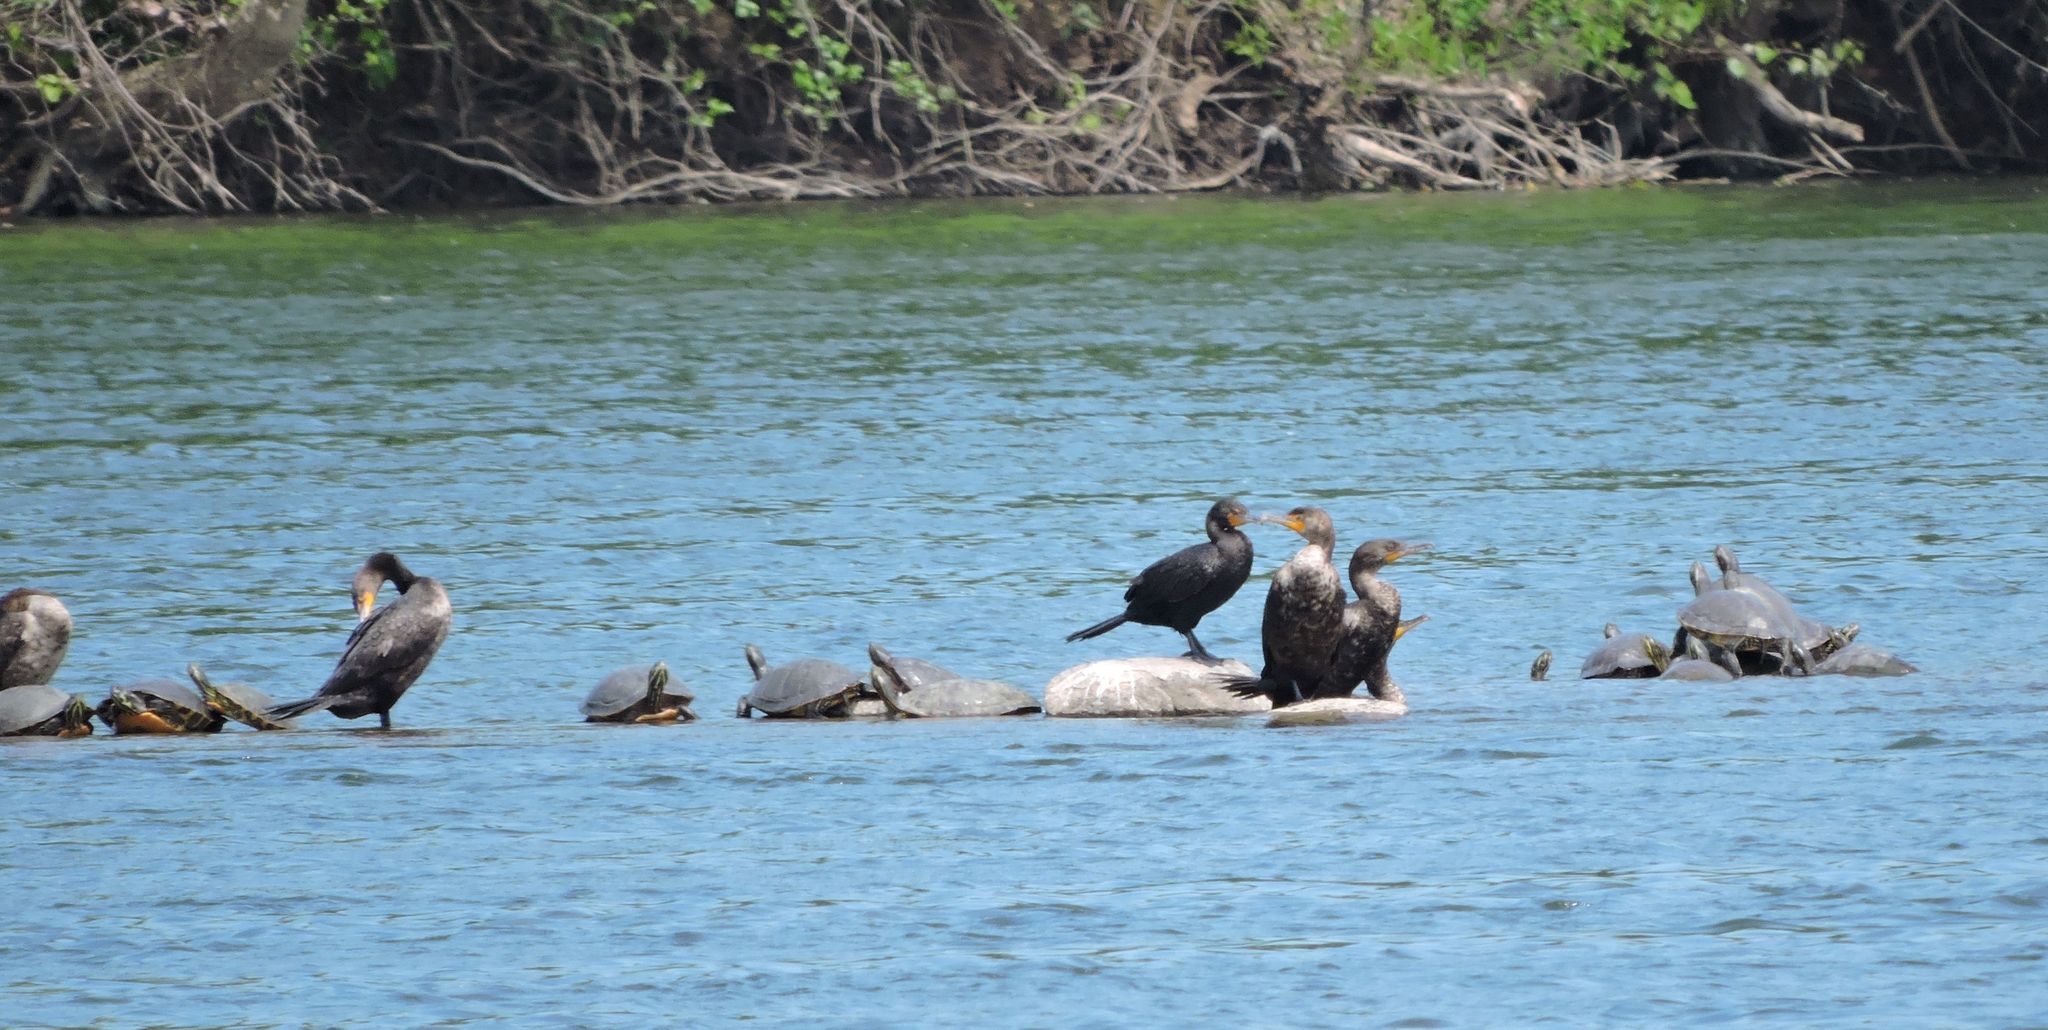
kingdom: Animalia
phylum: Chordata
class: Aves
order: Suliformes
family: Phalacrocoracidae
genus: Phalacrocorax
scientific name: Phalacrocorax auritus
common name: Double-crested cormorant
